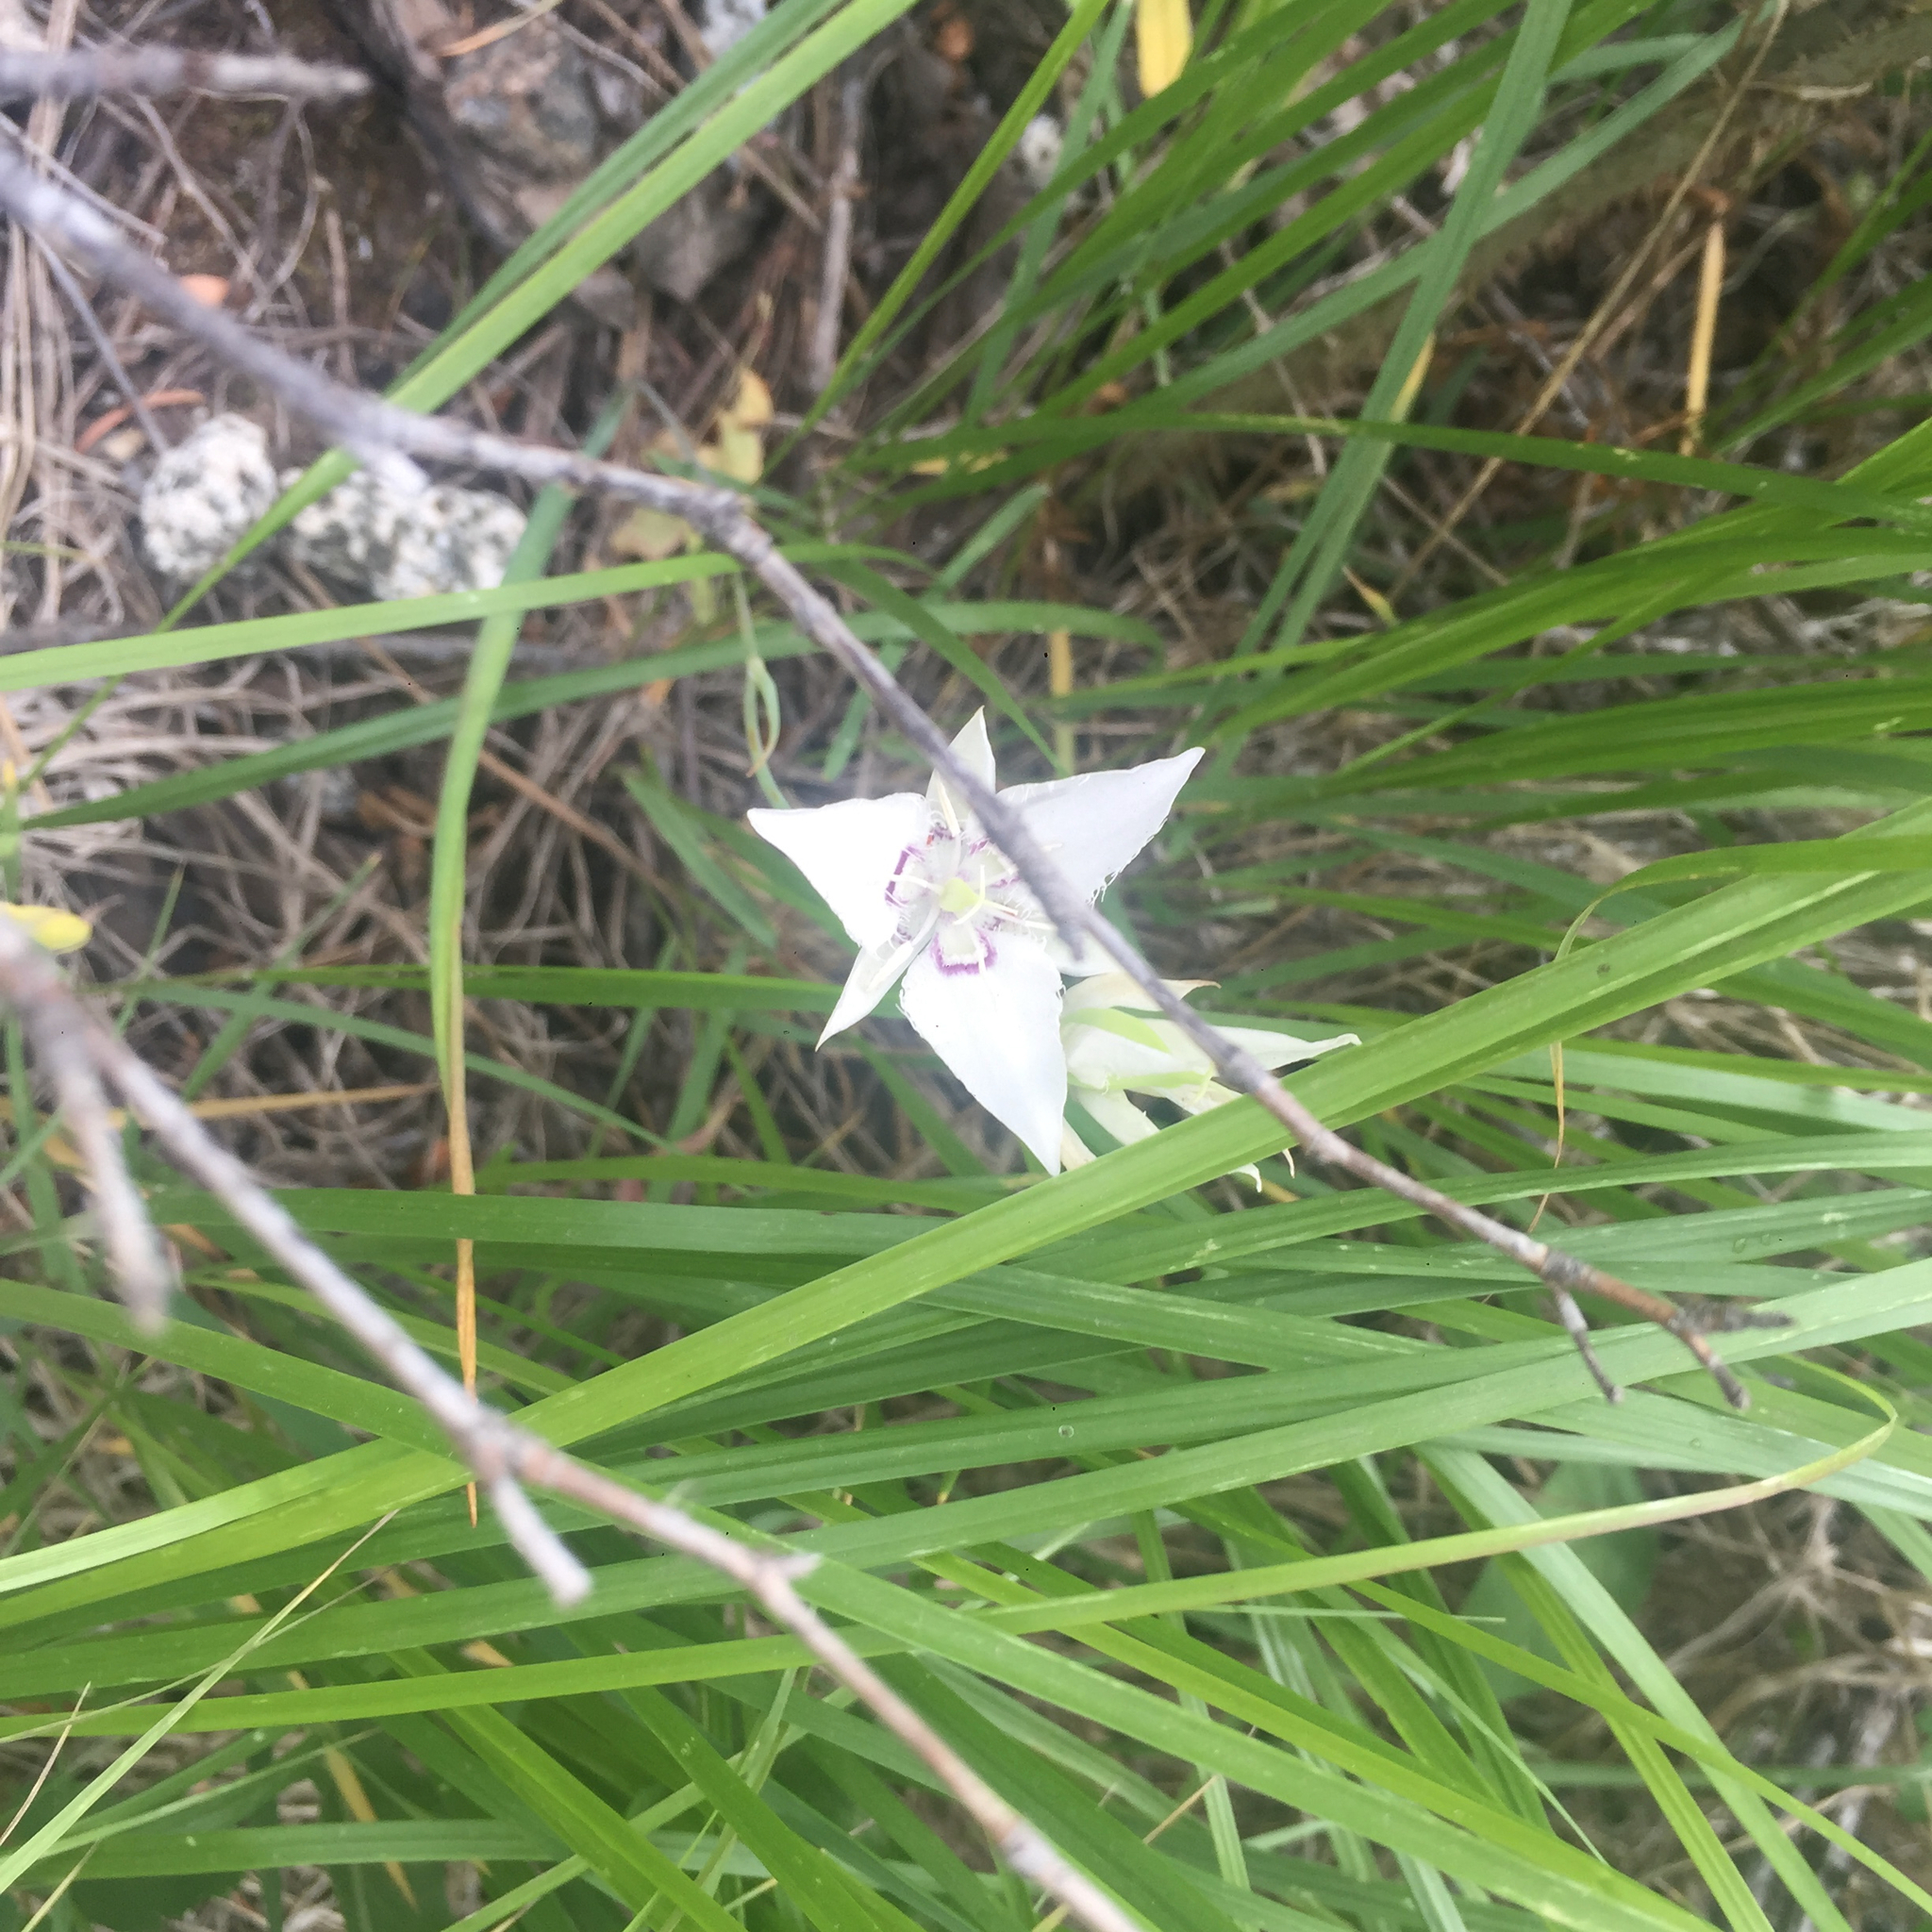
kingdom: Plantae
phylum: Tracheophyta
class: Liliopsida
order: Liliales
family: Liliaceae
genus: Calochortus
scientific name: Calochortus lyallii
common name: Lyall's mariposa lily
